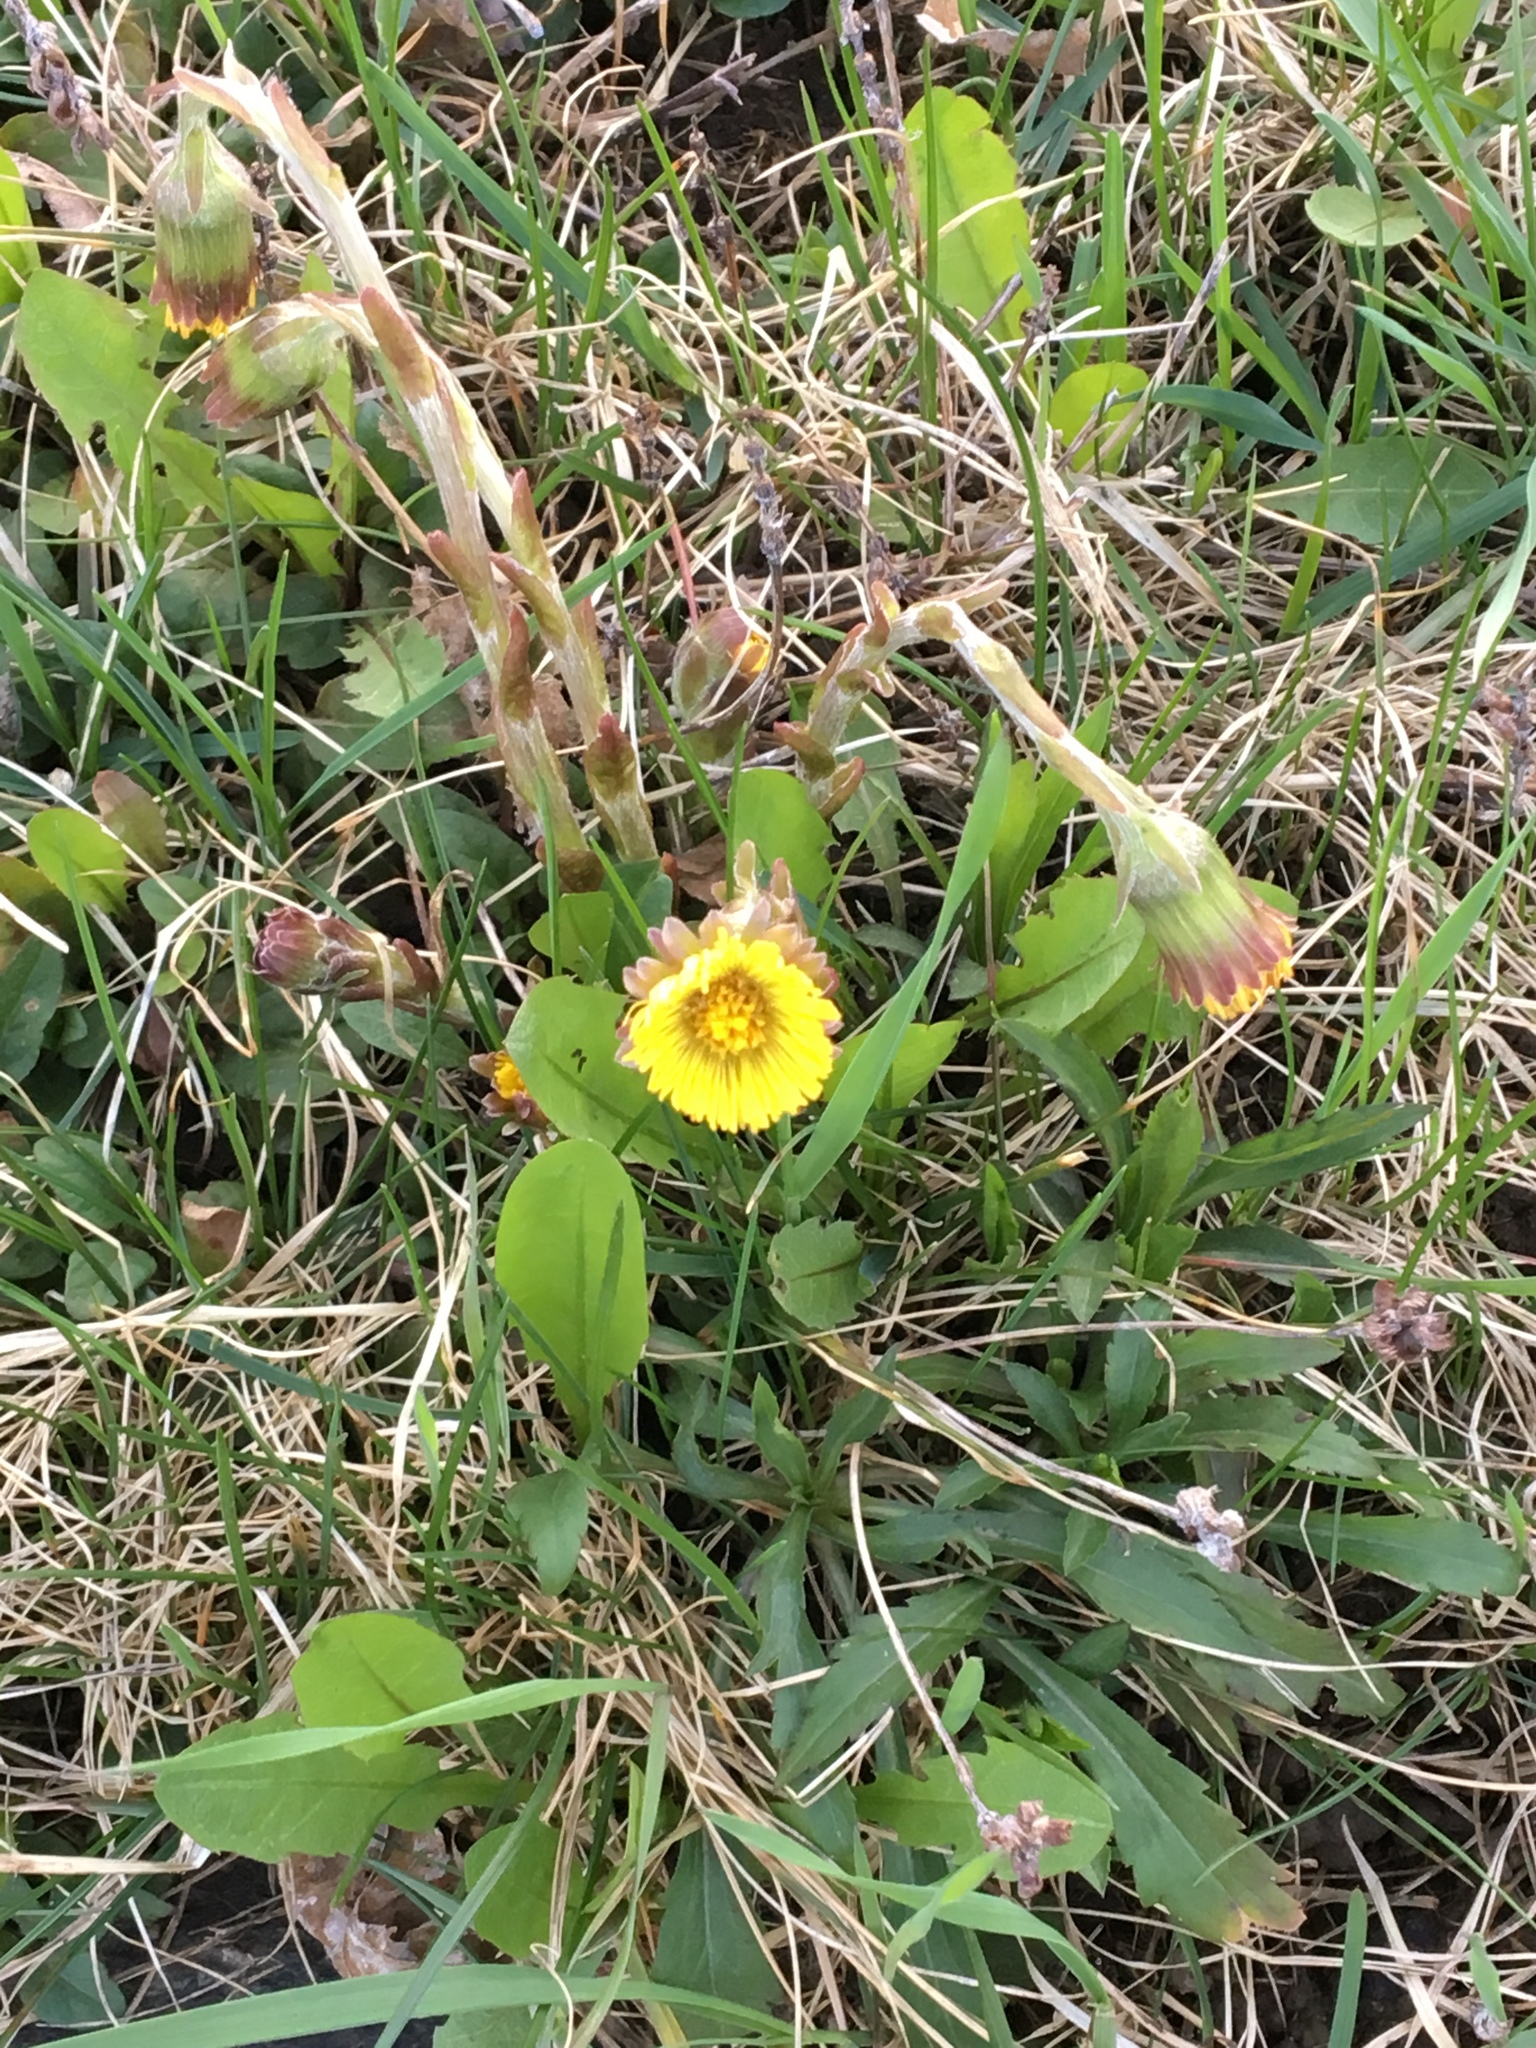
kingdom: Plantae
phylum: Tracheophyta
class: Magnoliopsida
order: Asterales
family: Asteraceae
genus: Tussilago
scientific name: Tussilago farfara
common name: Coltsfoot
